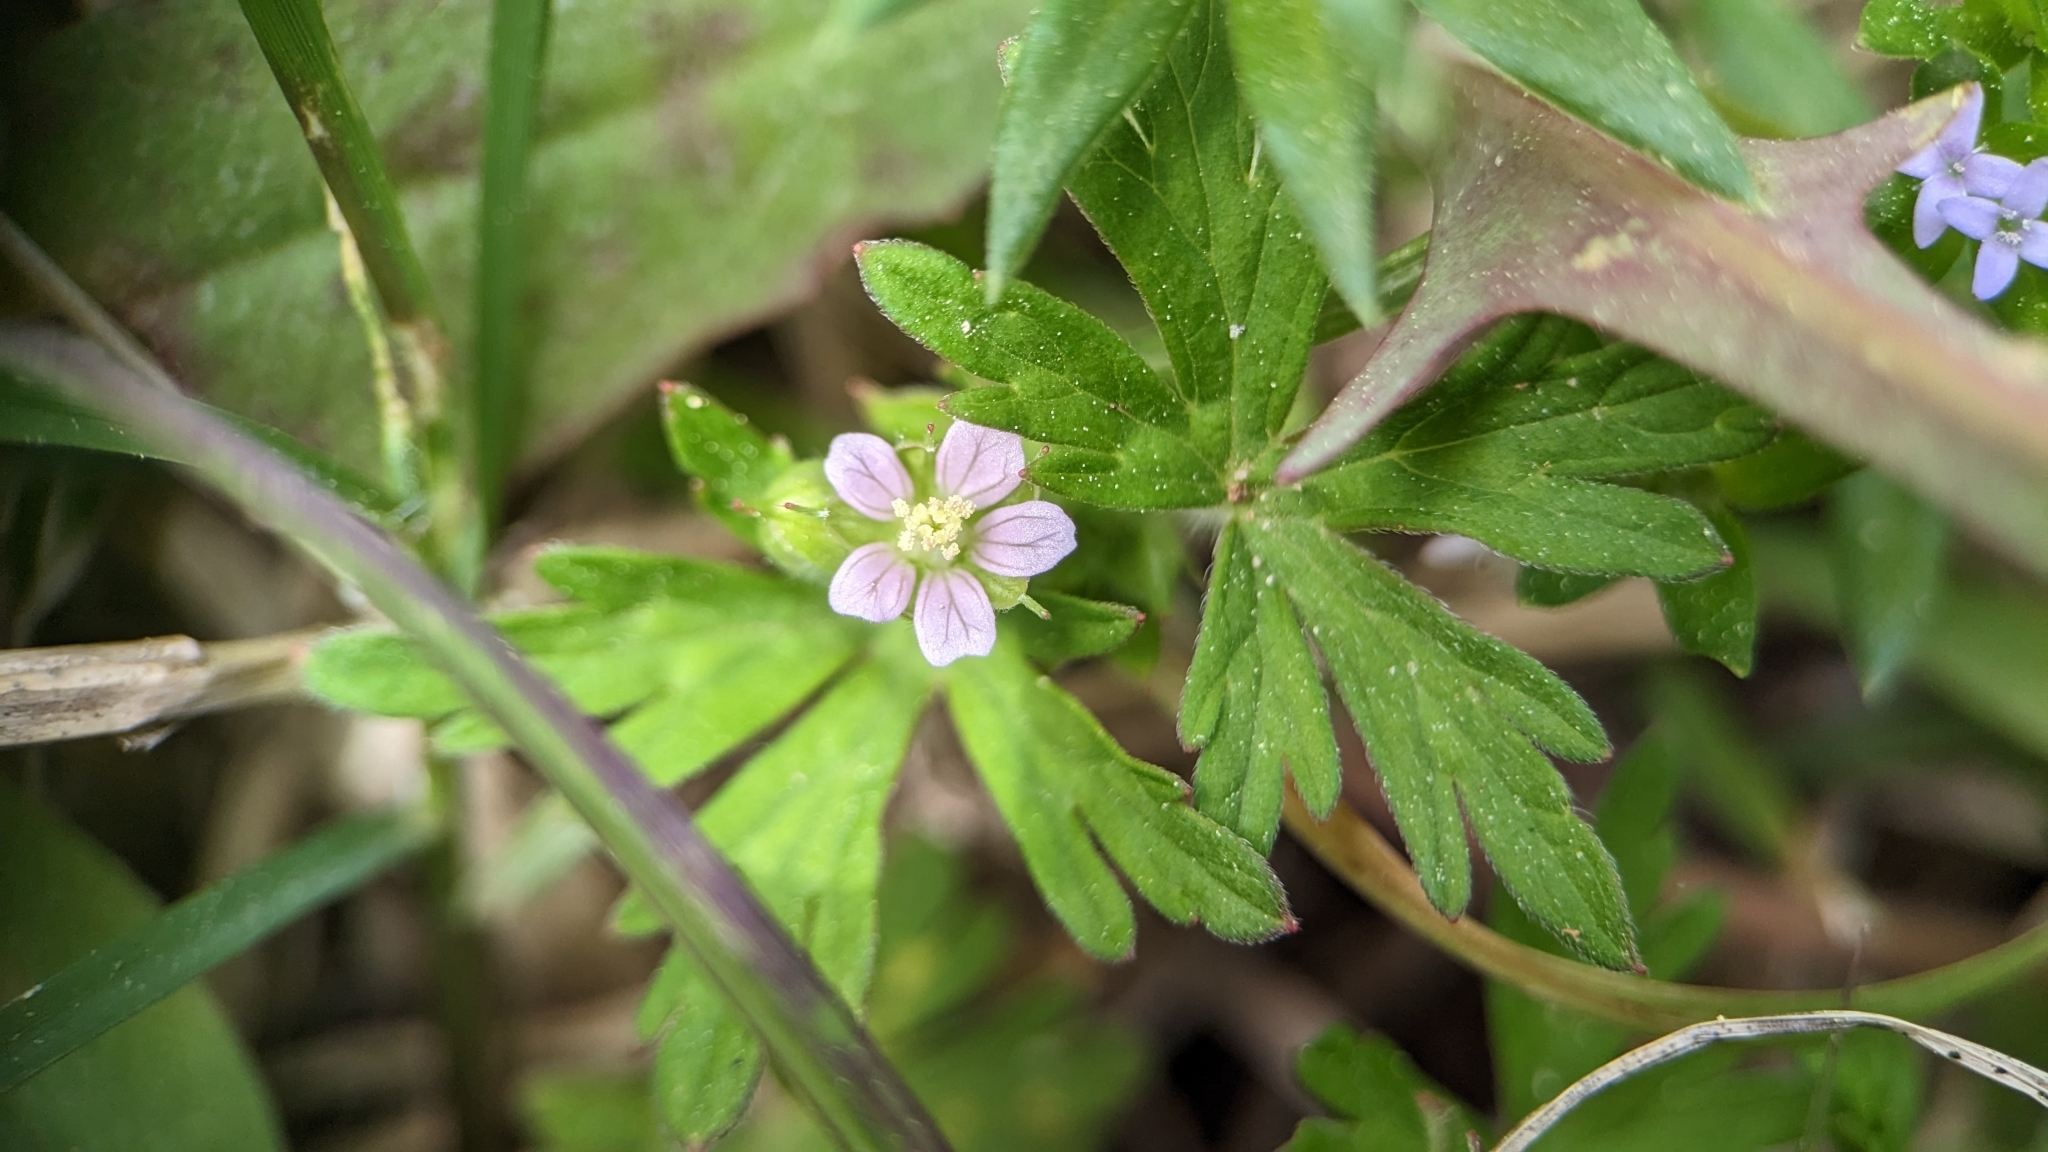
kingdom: Plantae
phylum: Tracheophyta
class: Magnoliopsida
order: Geraniales
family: Geraniaceae
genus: Geranium
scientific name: Geranium carolinianum
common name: Carolina crane's-bill
